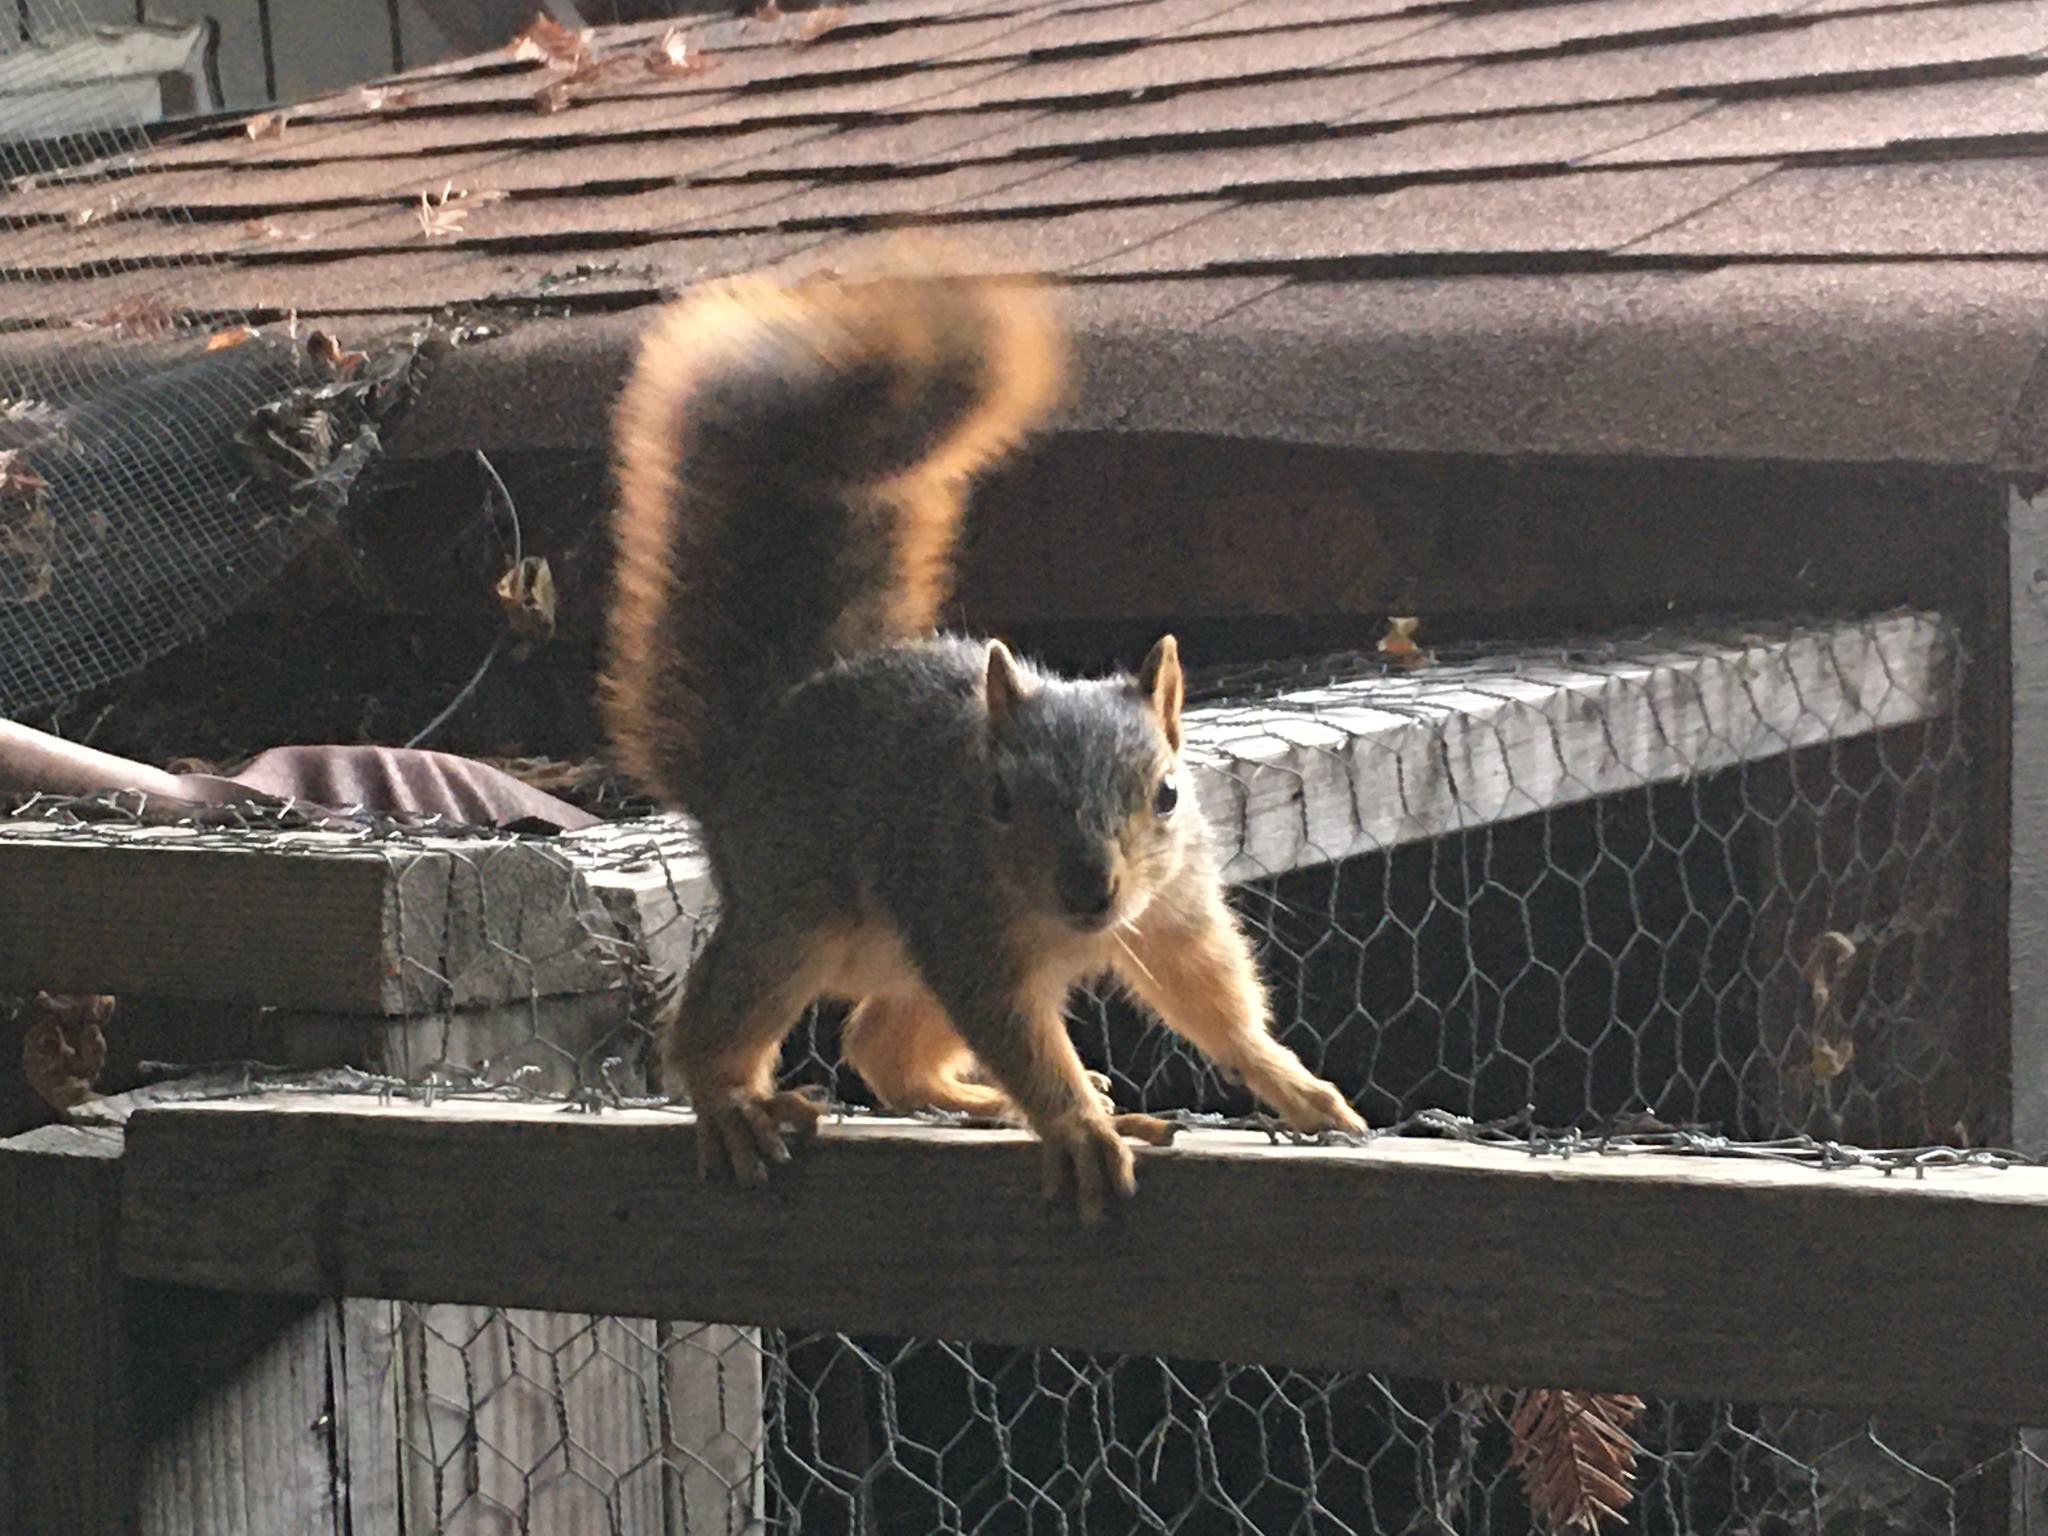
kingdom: Animalia
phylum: Chordata
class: Mammalia
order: Rodentia
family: Sciuridae
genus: Sciurus
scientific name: Sciurus niger
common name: Fox squirrel
